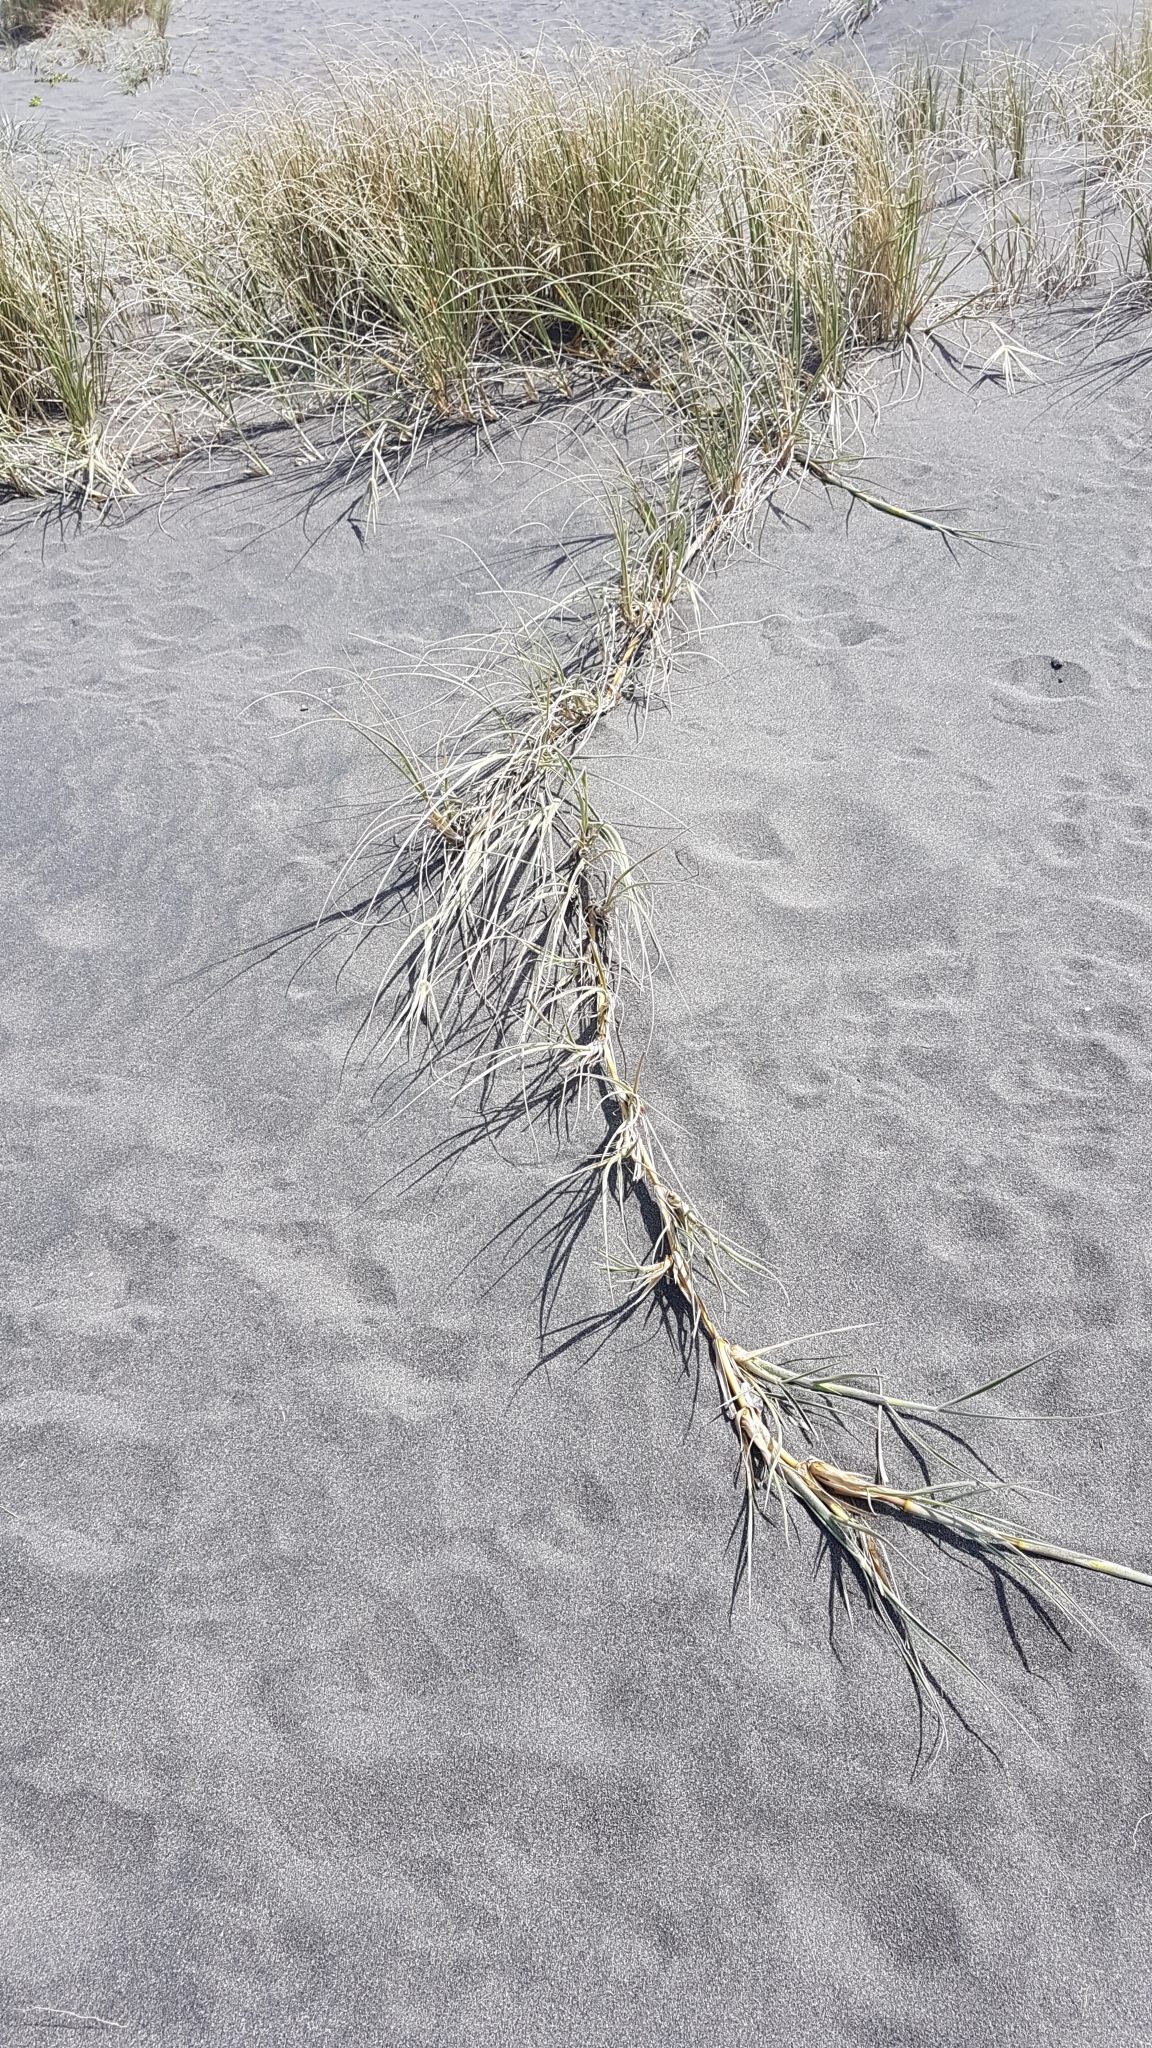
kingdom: Plantae
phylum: Tracheophyta
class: Liliopsida
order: Poales
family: Poaceae
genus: Spinifex
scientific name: Spinifex sericeus
